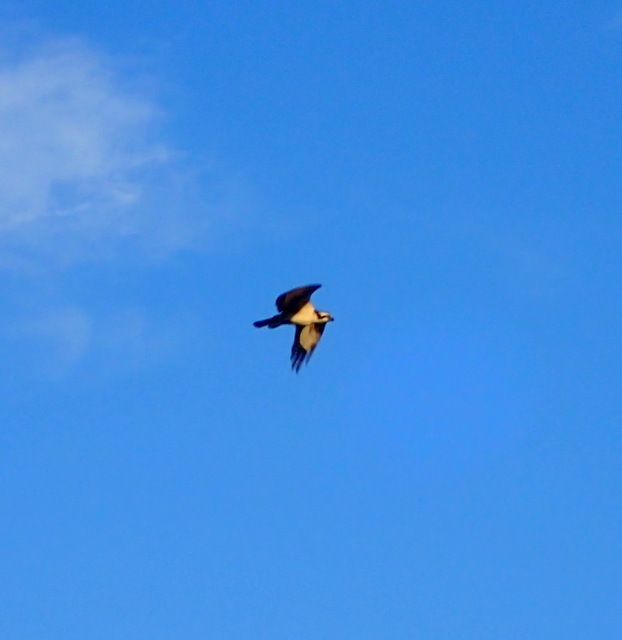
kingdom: Animalia
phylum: Chordata
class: Aves
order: Accipitriformes
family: Pandionidae
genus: Pandion
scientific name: Pandion haliaetus
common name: Osprey
